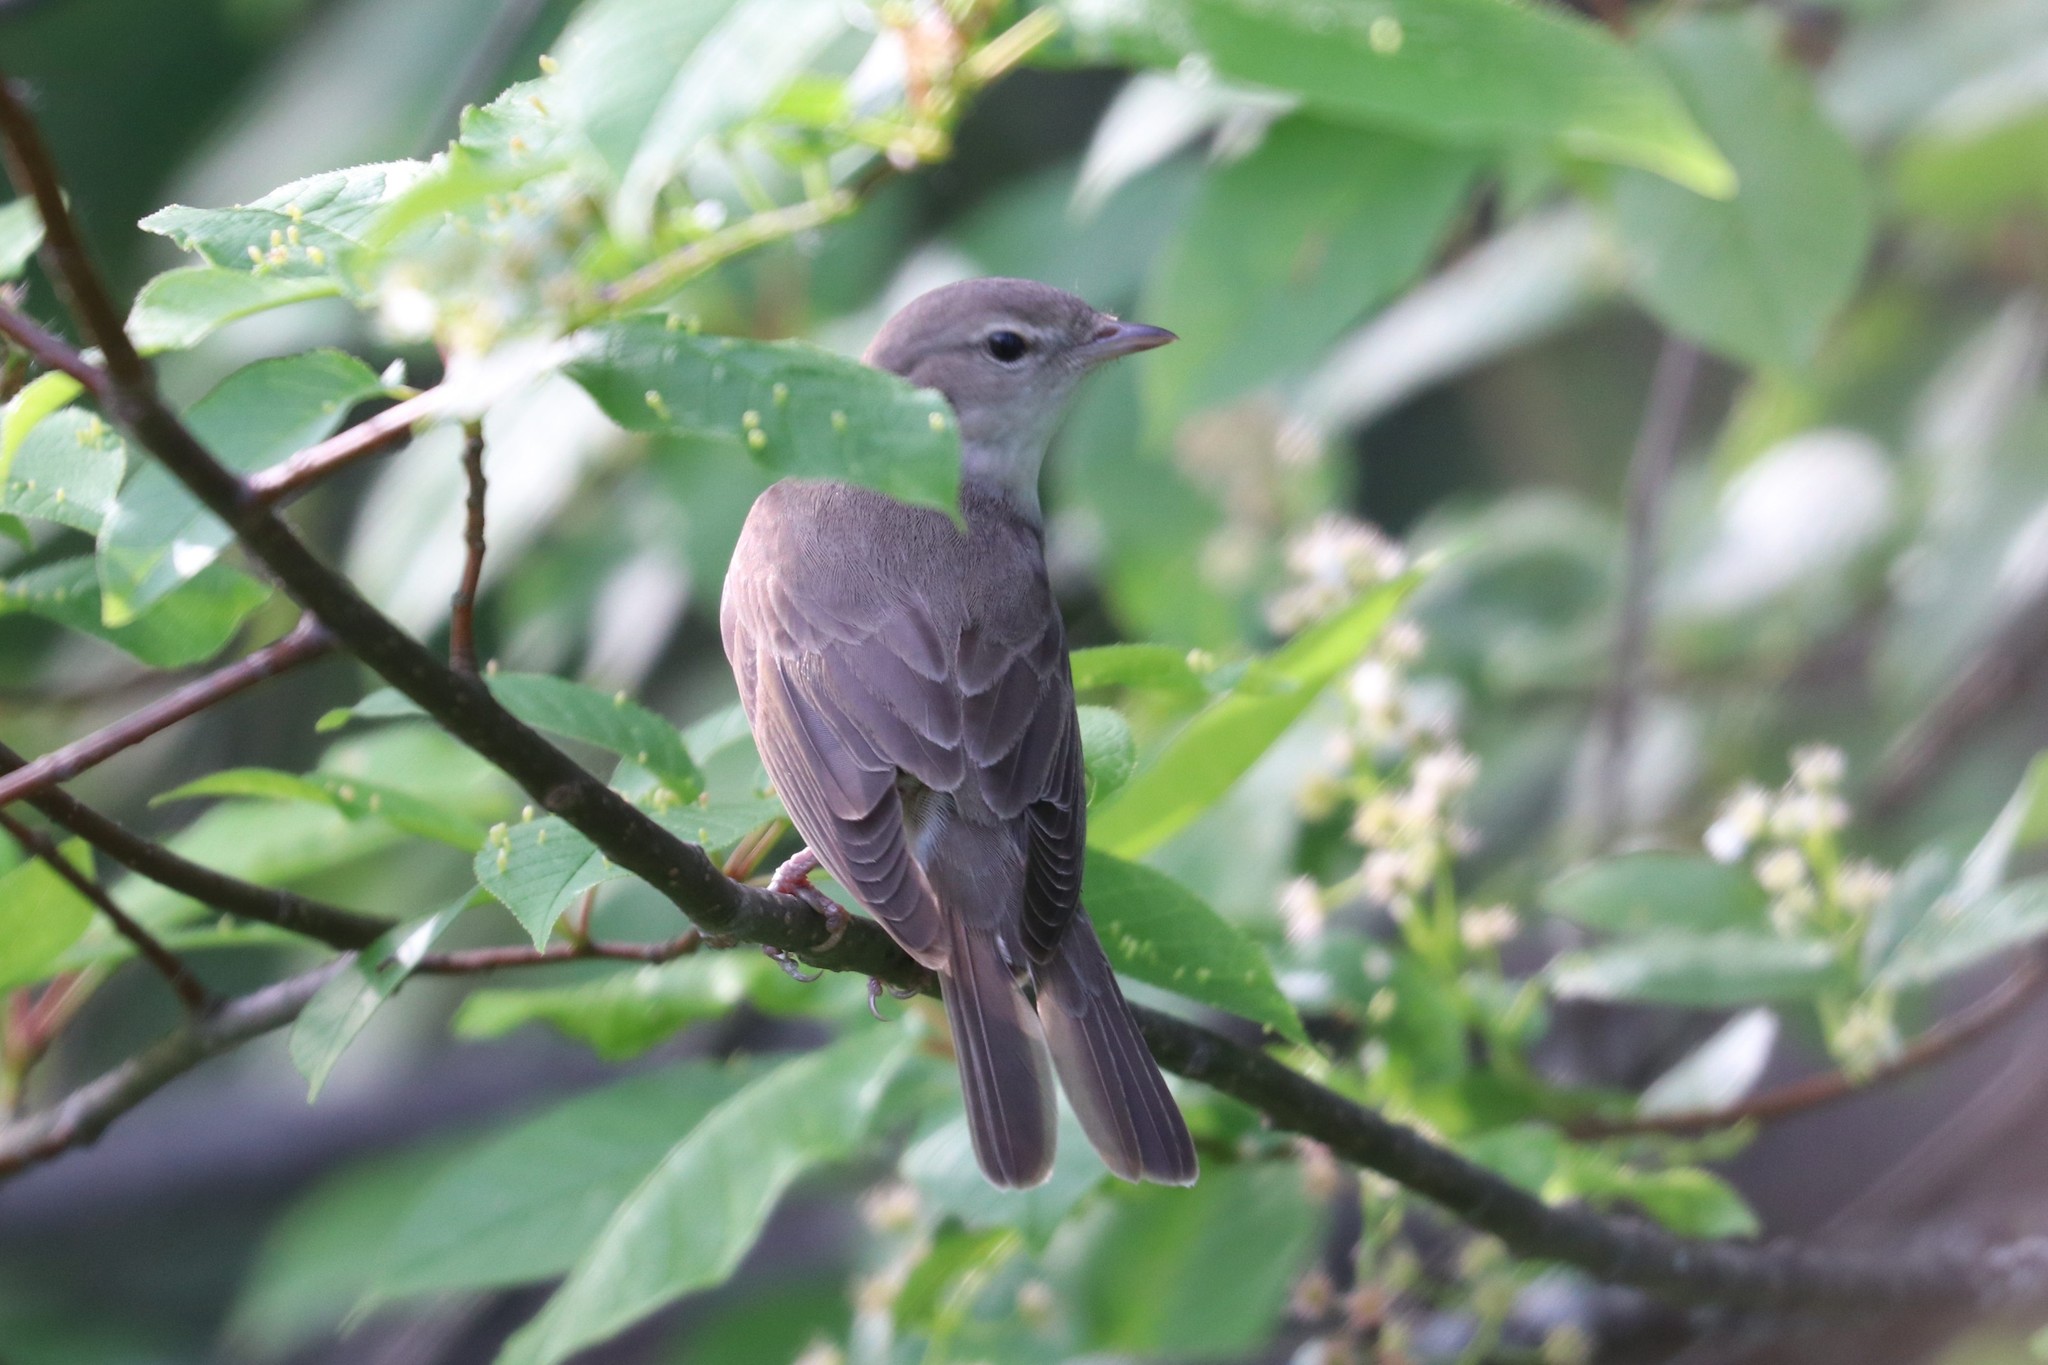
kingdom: Animalia
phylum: Chordata
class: Aves
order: Passeriformes
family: Sylviidae
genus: Sylvia
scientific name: Sylvia borin
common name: Garden warbler
